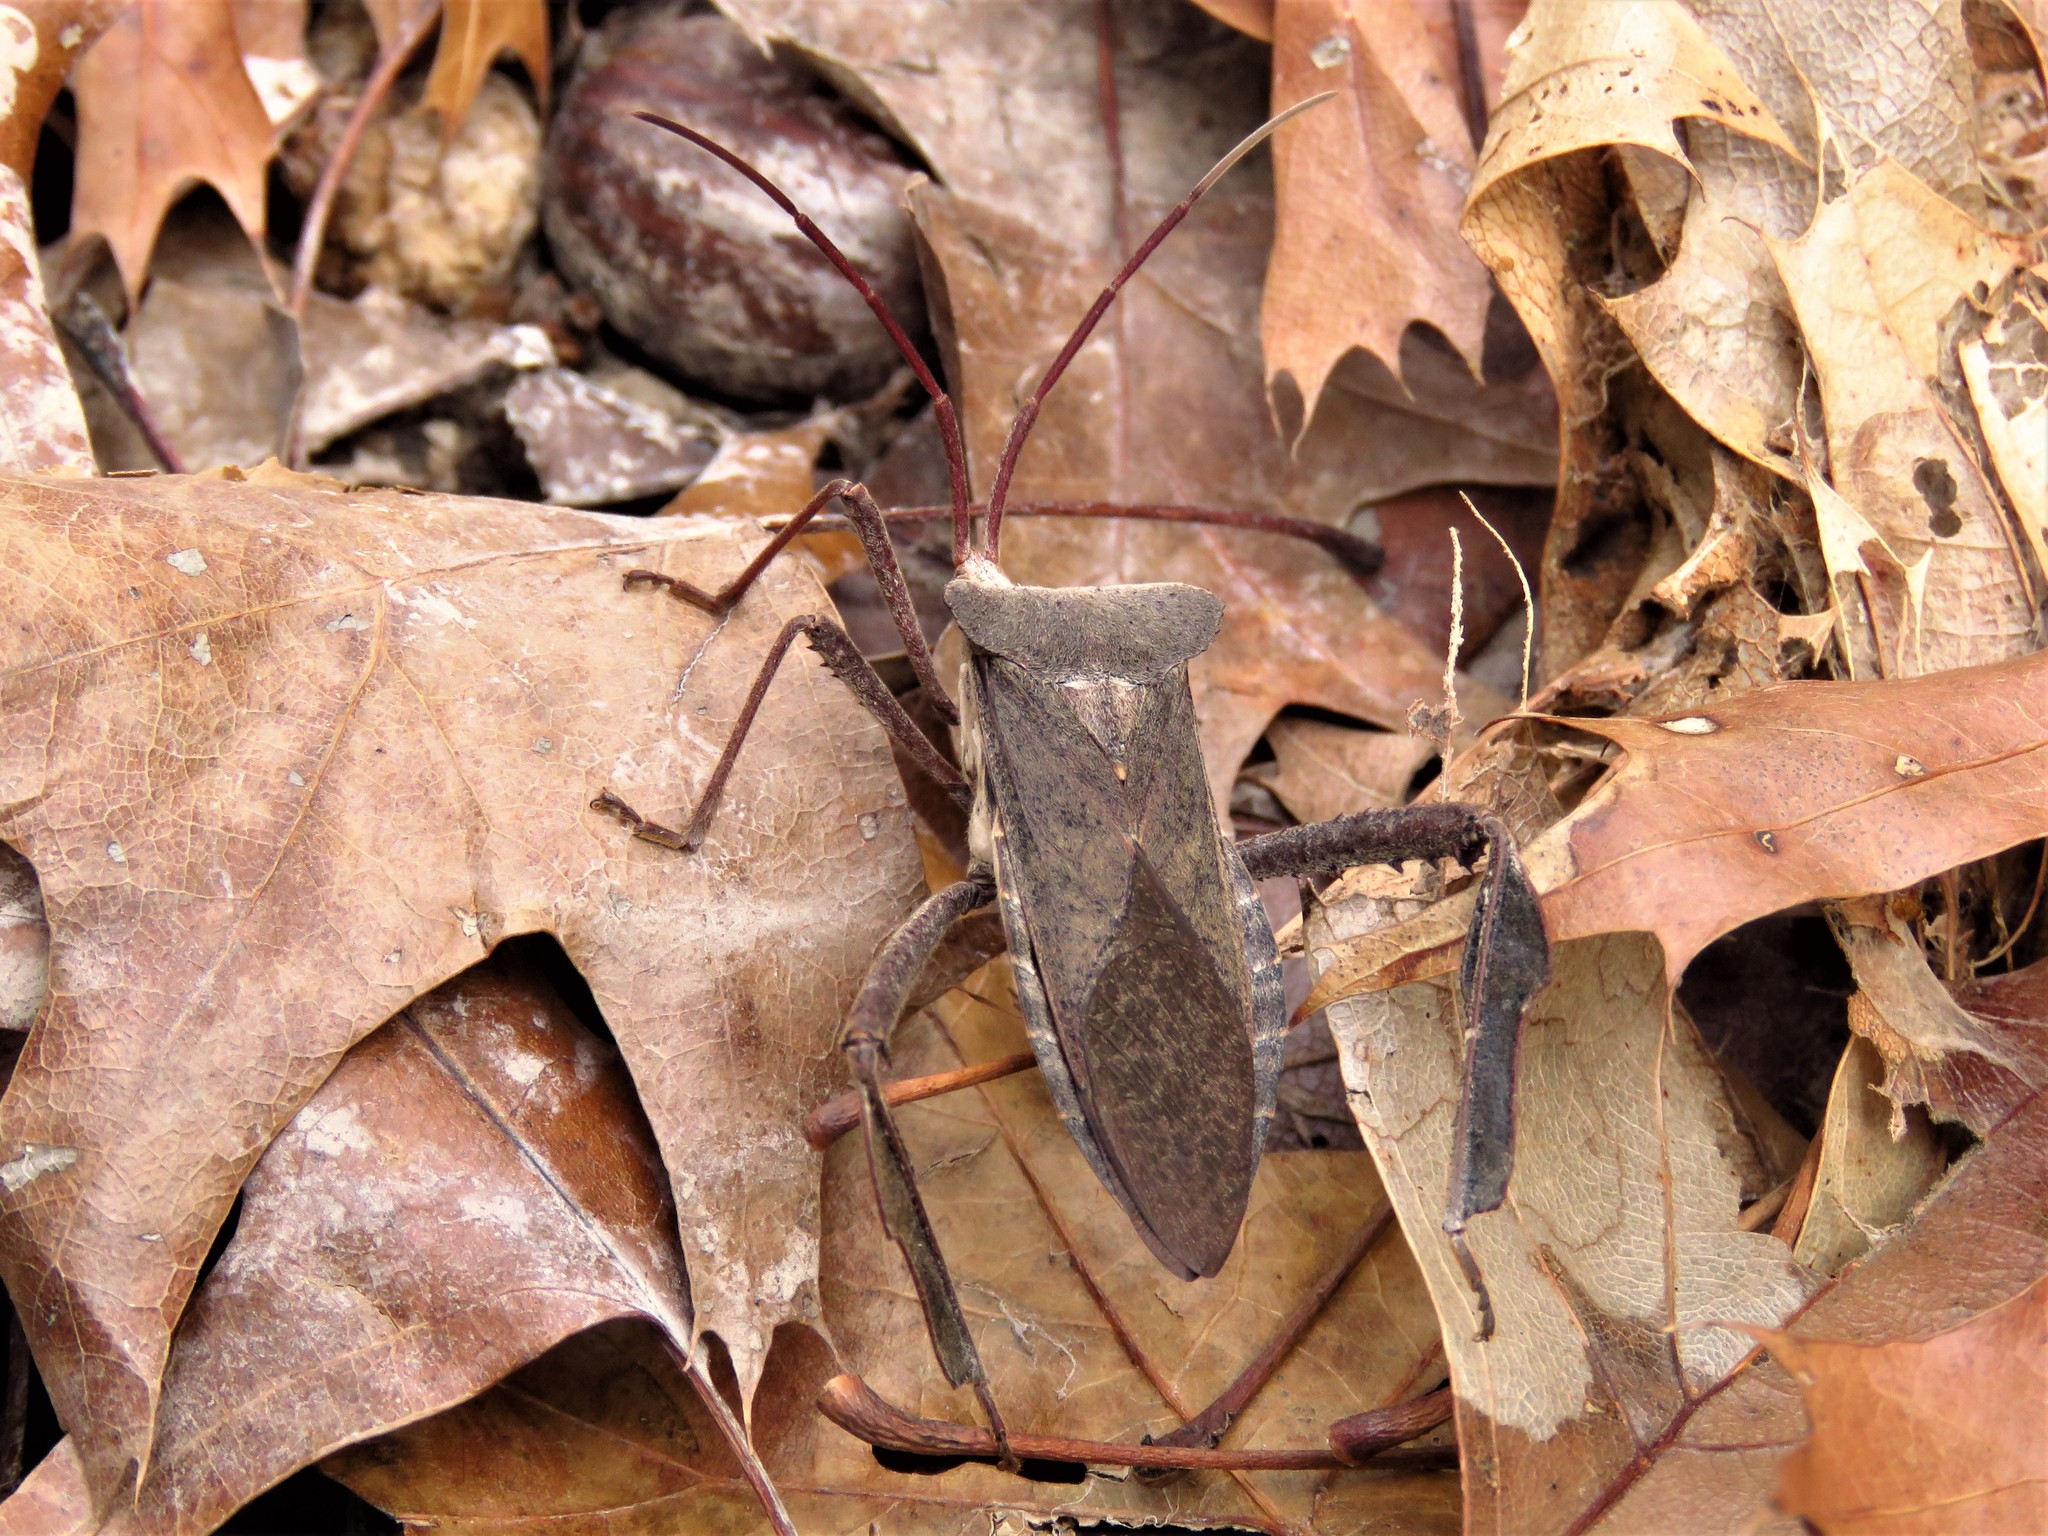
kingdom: Animalia
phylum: Arthropoda
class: Insecta
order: Hemiptera
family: Coreidae
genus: Acanthocephala
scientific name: Acanthocephala declivis
